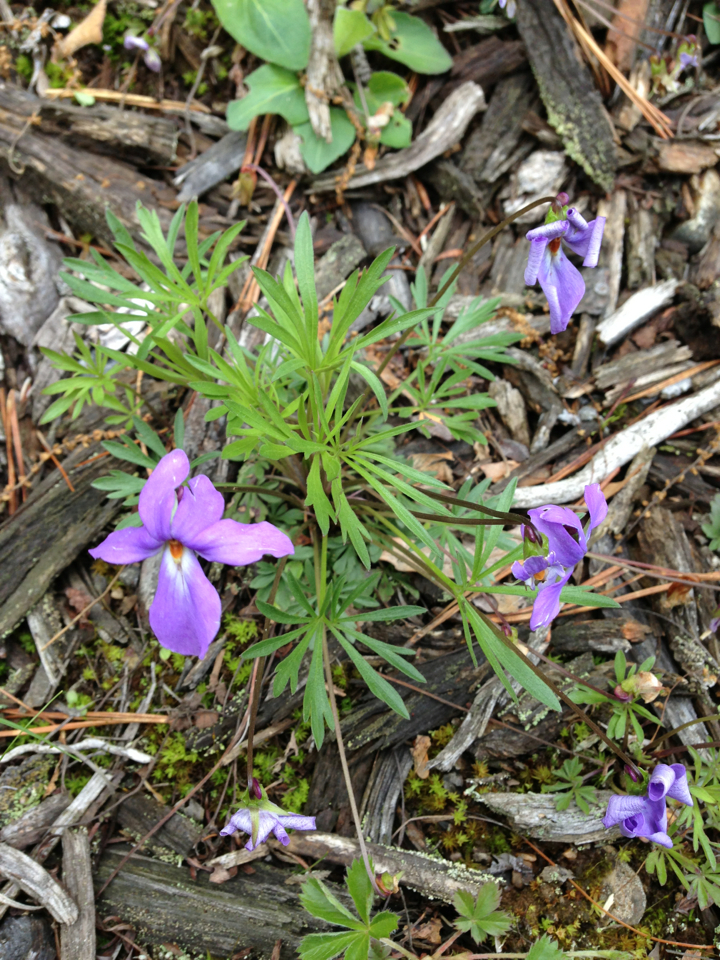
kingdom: Plantae
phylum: Tracheophyta
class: Magnoliopsida
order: Malpighiales
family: Violaceae
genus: Viola
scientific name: Viola pedata
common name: Pansy violet
